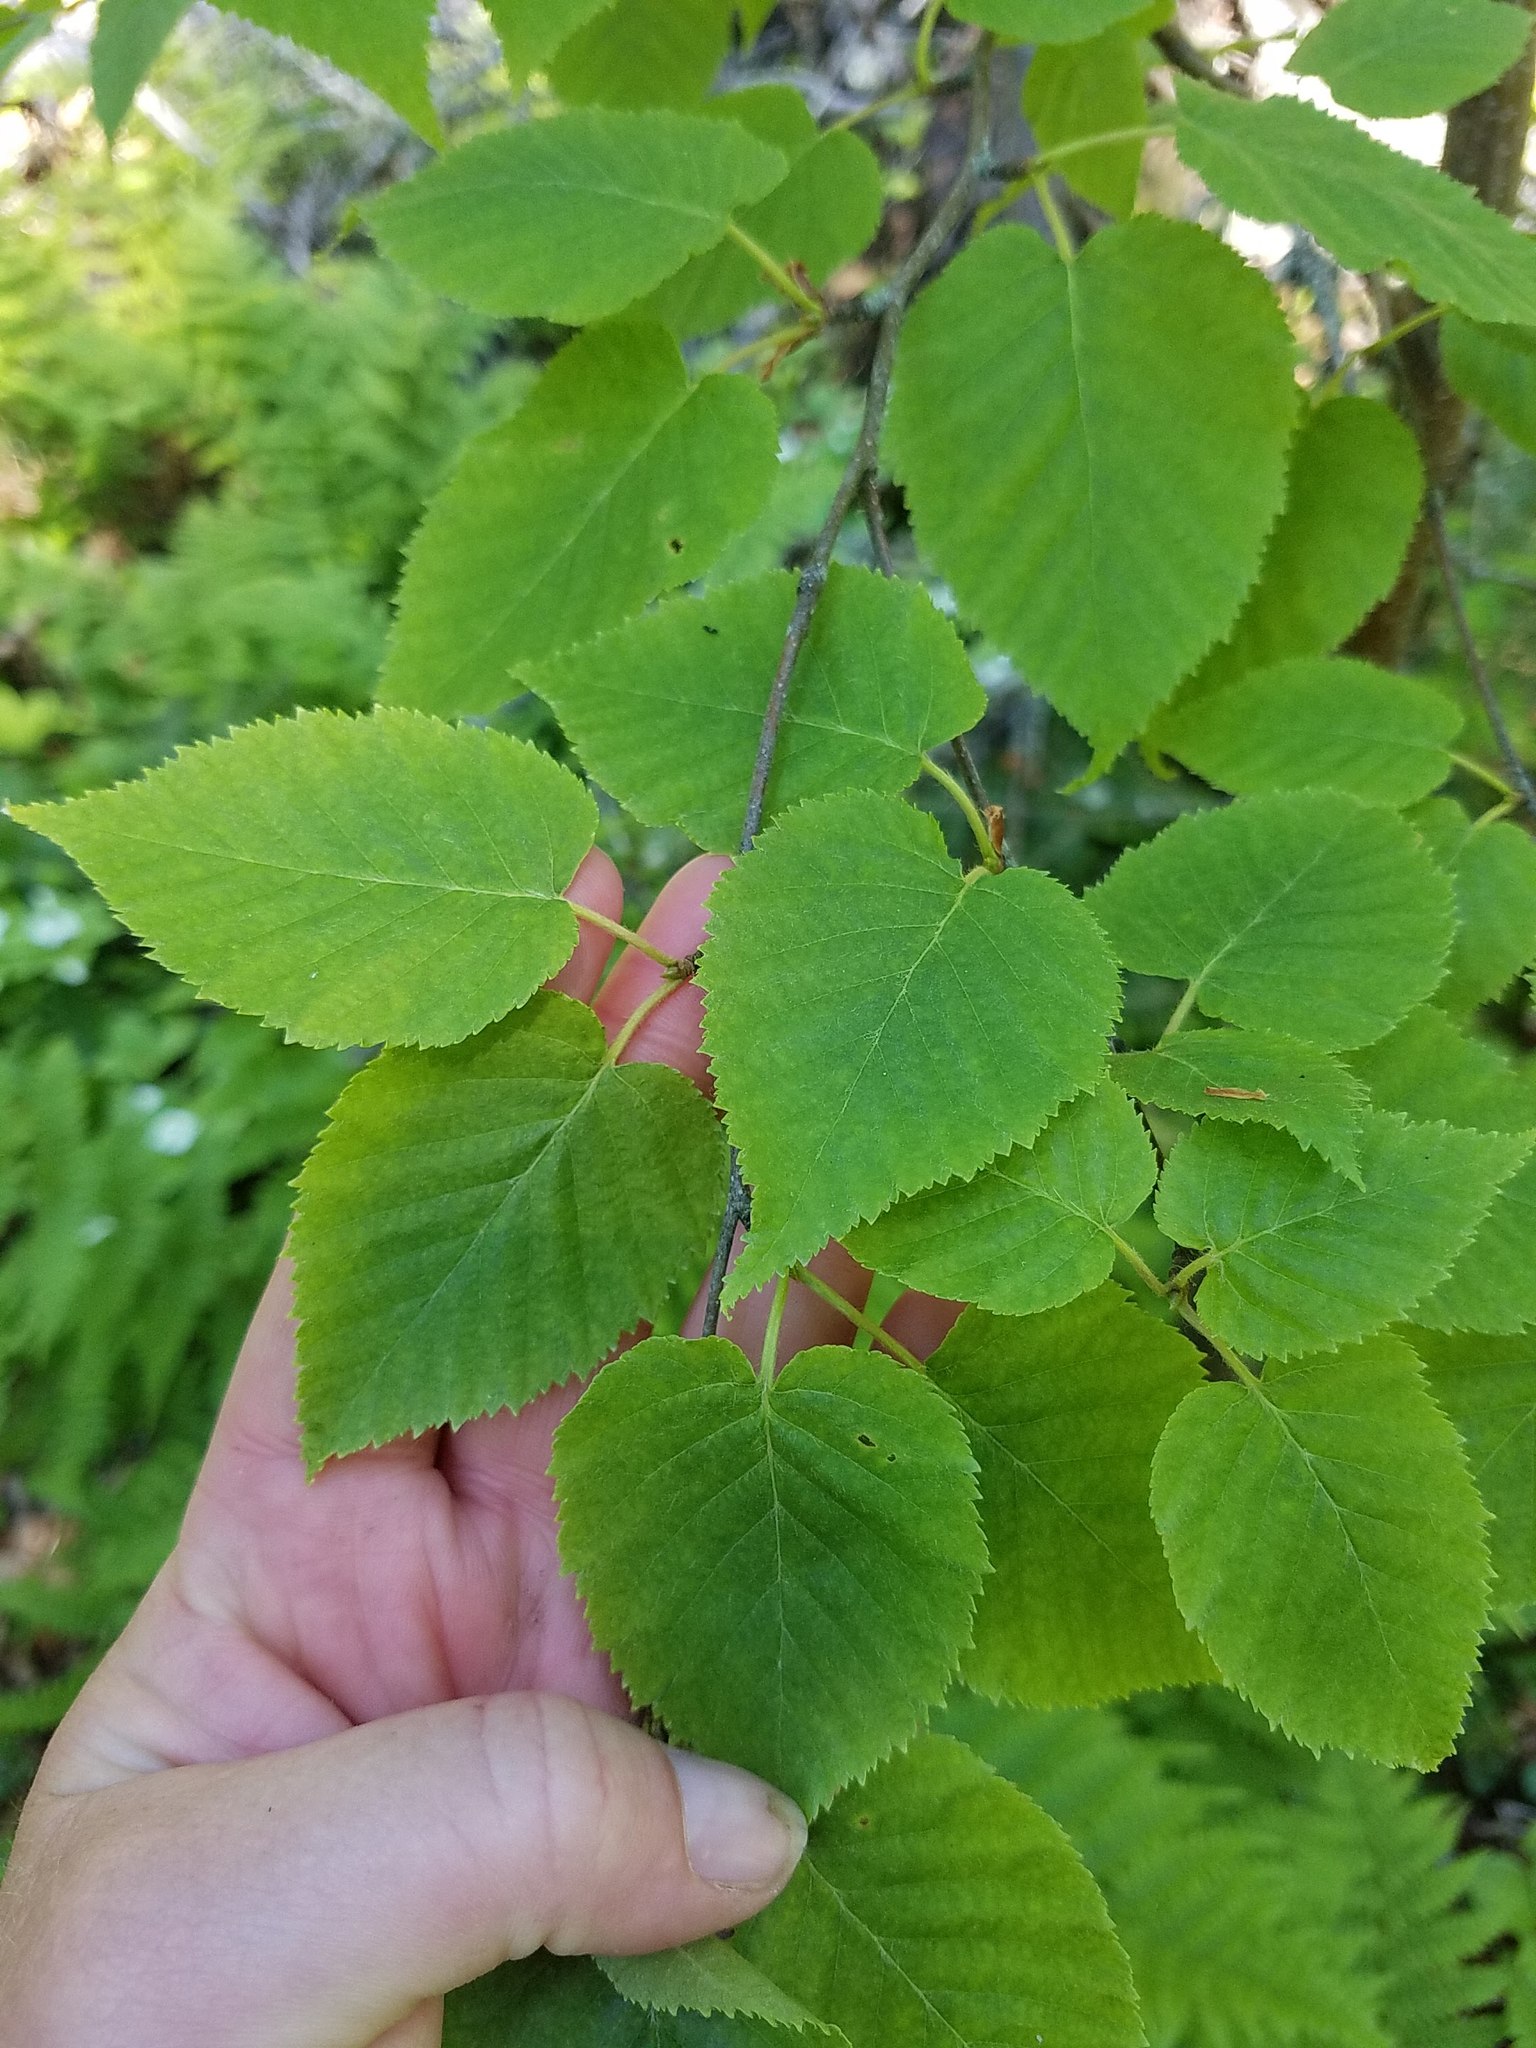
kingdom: Plantae
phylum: Tracheophyta
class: Magnoliopsida
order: Fagales
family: Betulaceae
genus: Betula
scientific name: Betula cordifolia
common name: Mountain white birch
